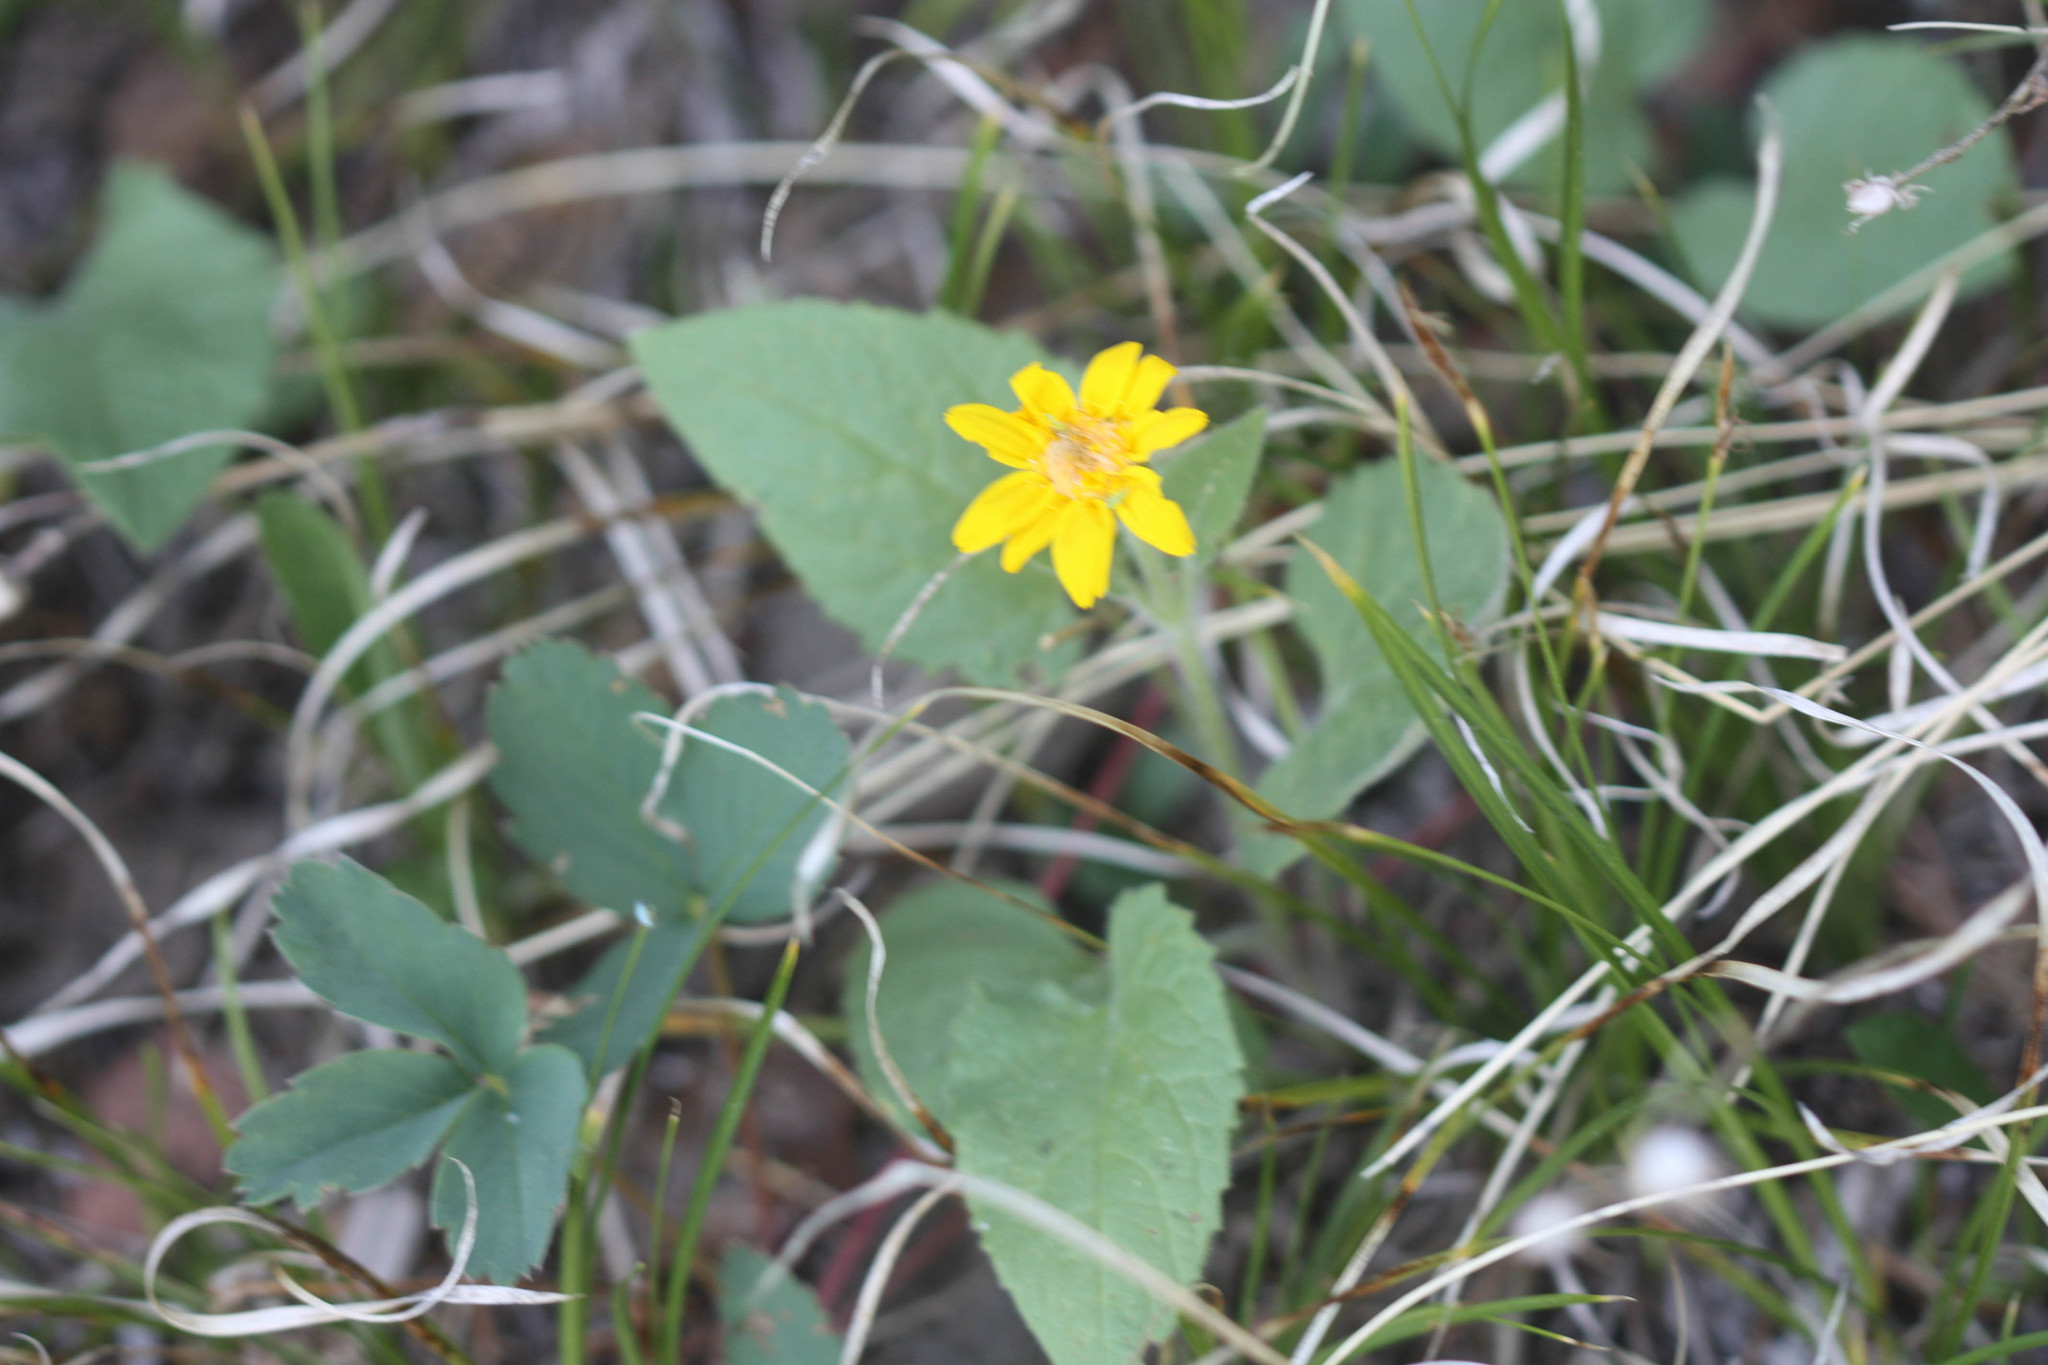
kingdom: Plantae
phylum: Tracheophyta
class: Magnoliopsida
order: Asterales
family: Asteraceae
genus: Arnica
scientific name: Arnica cordifolia
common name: Heart-leaf arnica
